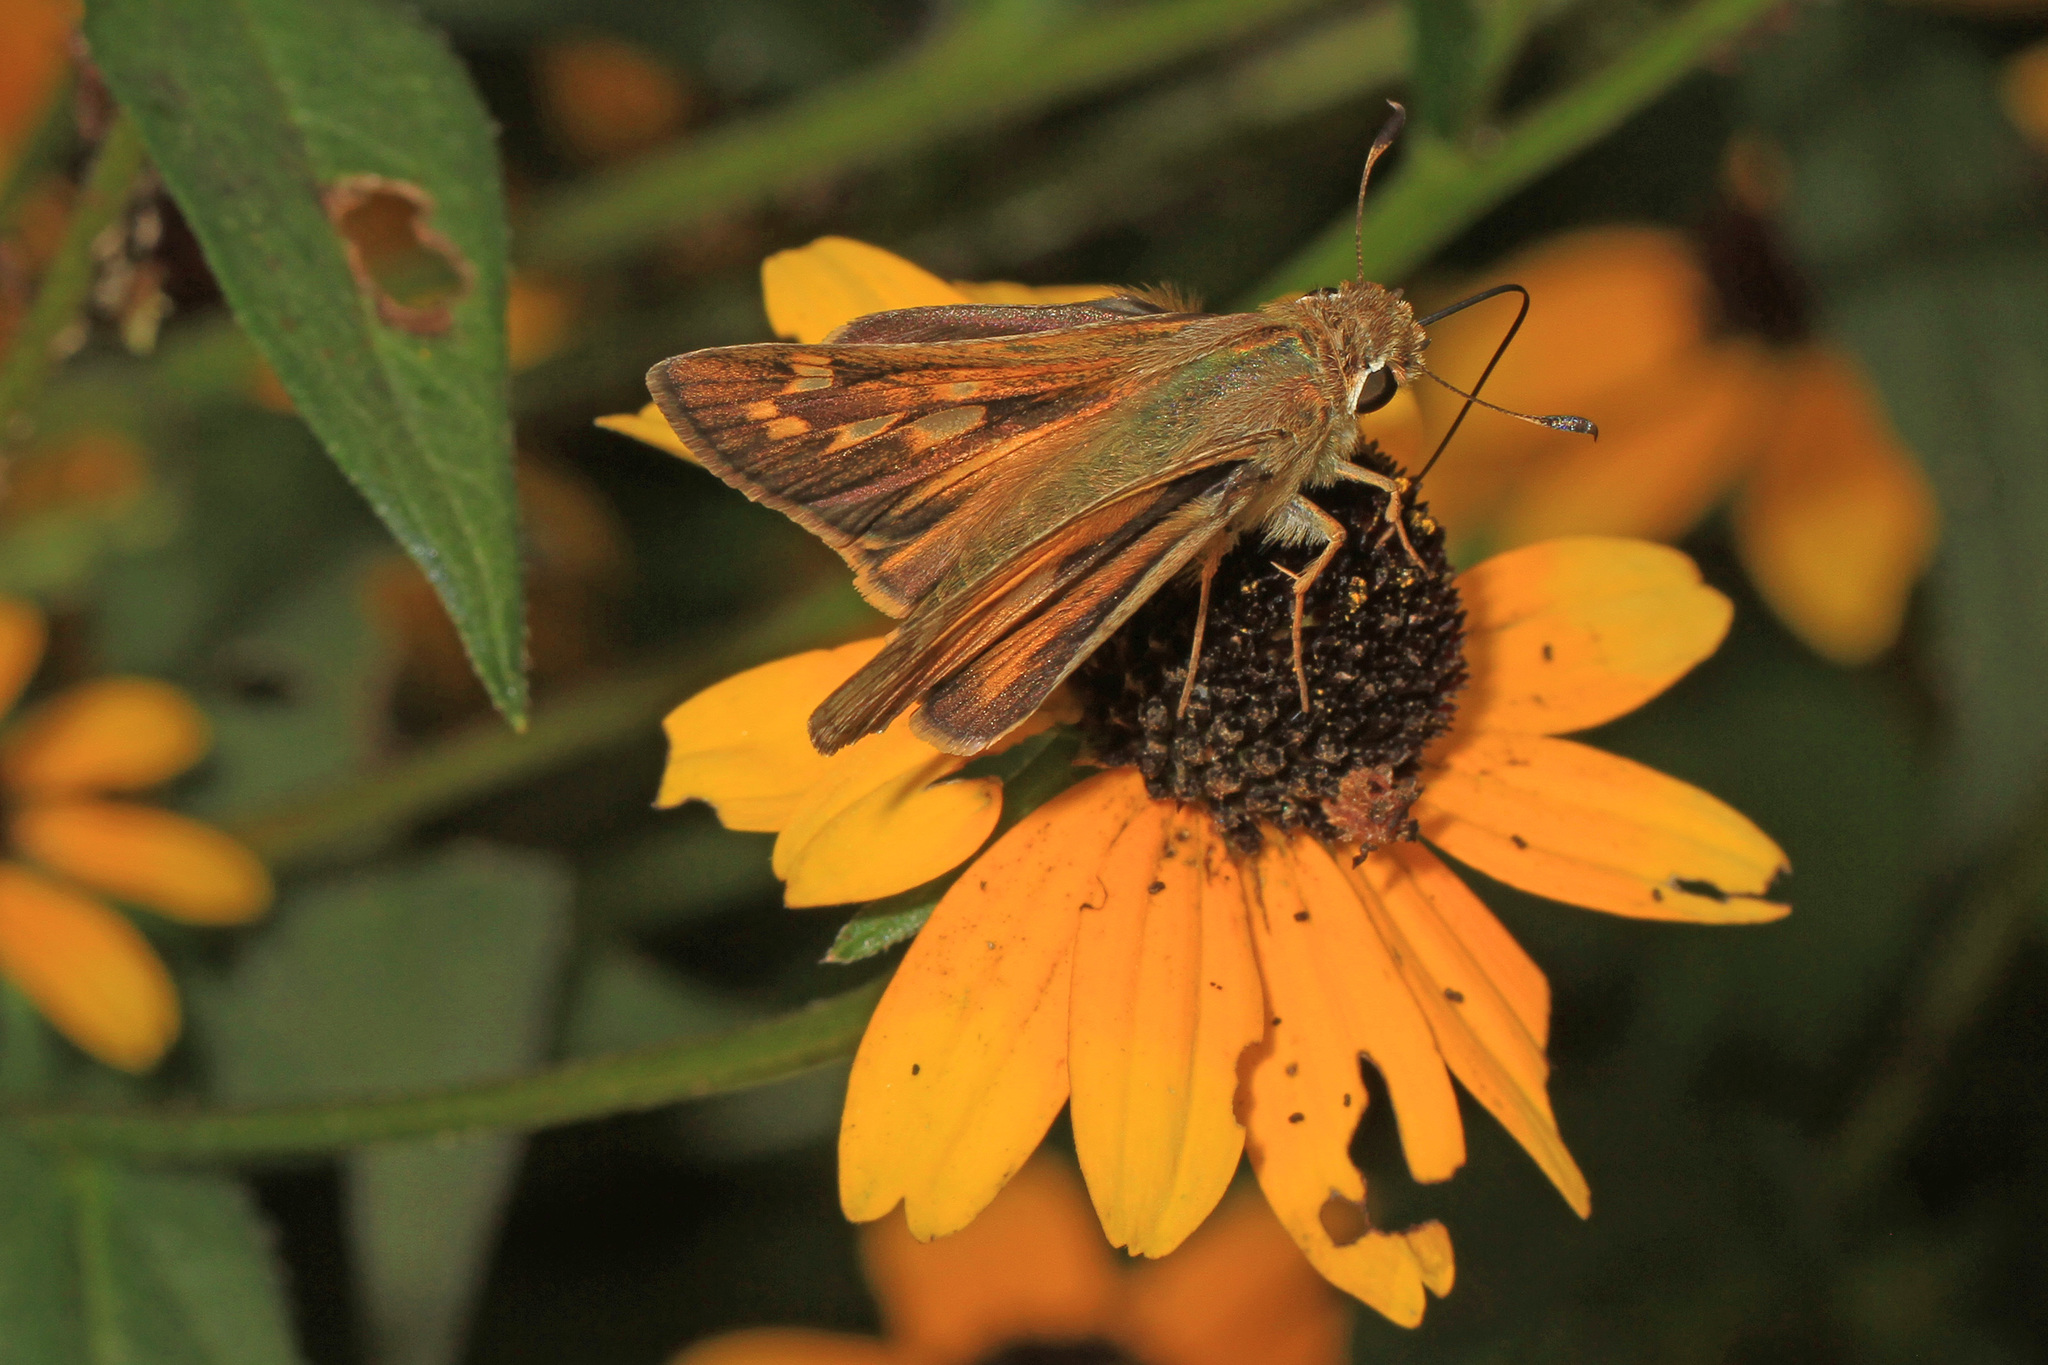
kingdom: Animalia
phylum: Arthropoda
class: Insecta
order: Lepidoptera
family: Hesperiidae
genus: Atalopedes
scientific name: Atalopedes
